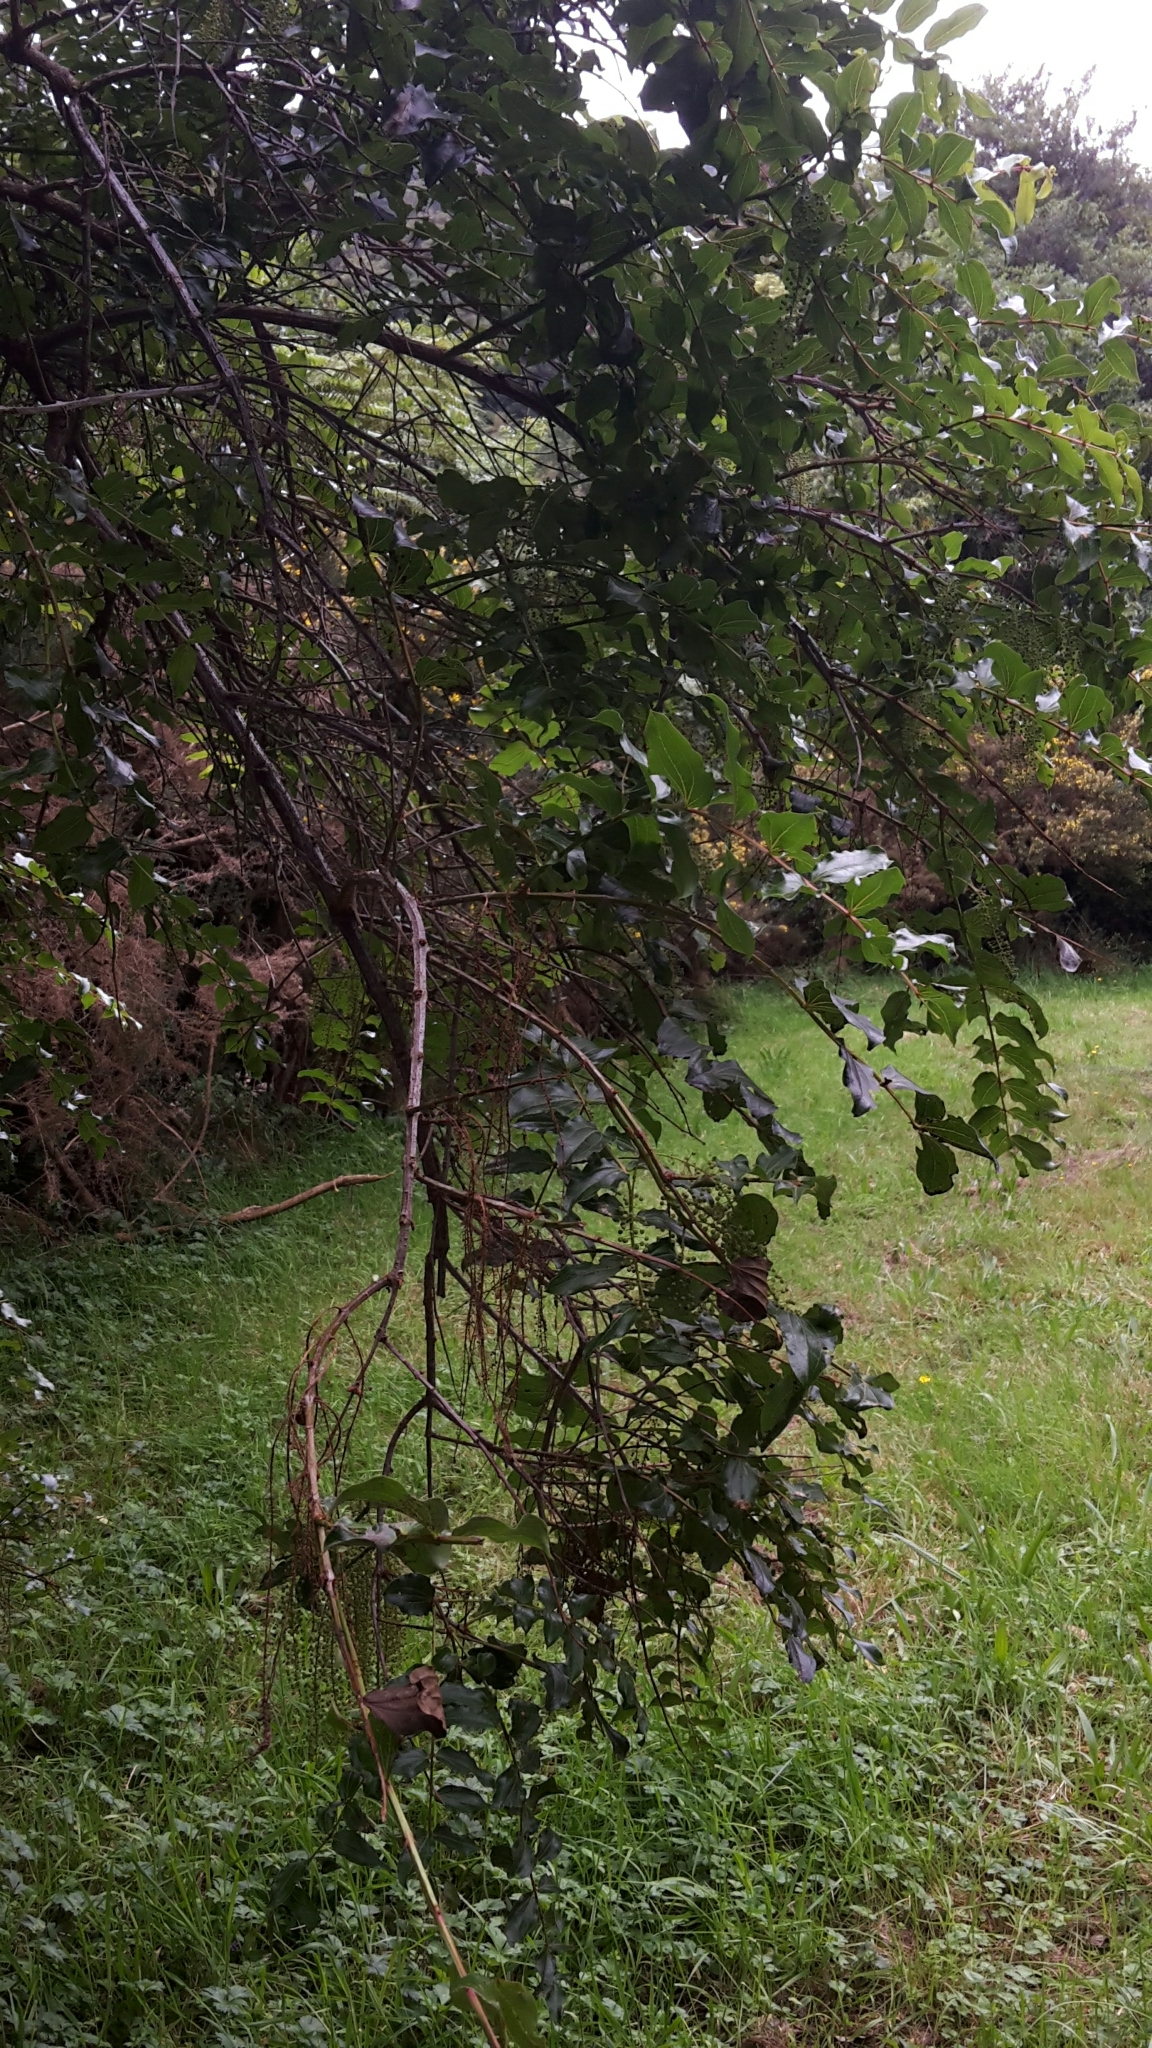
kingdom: Plantae
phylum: Tracheophyta
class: Magnoliopsida
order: Cucurbitales
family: Coriariaceae
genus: Coriaria
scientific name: Coriaria arborea
